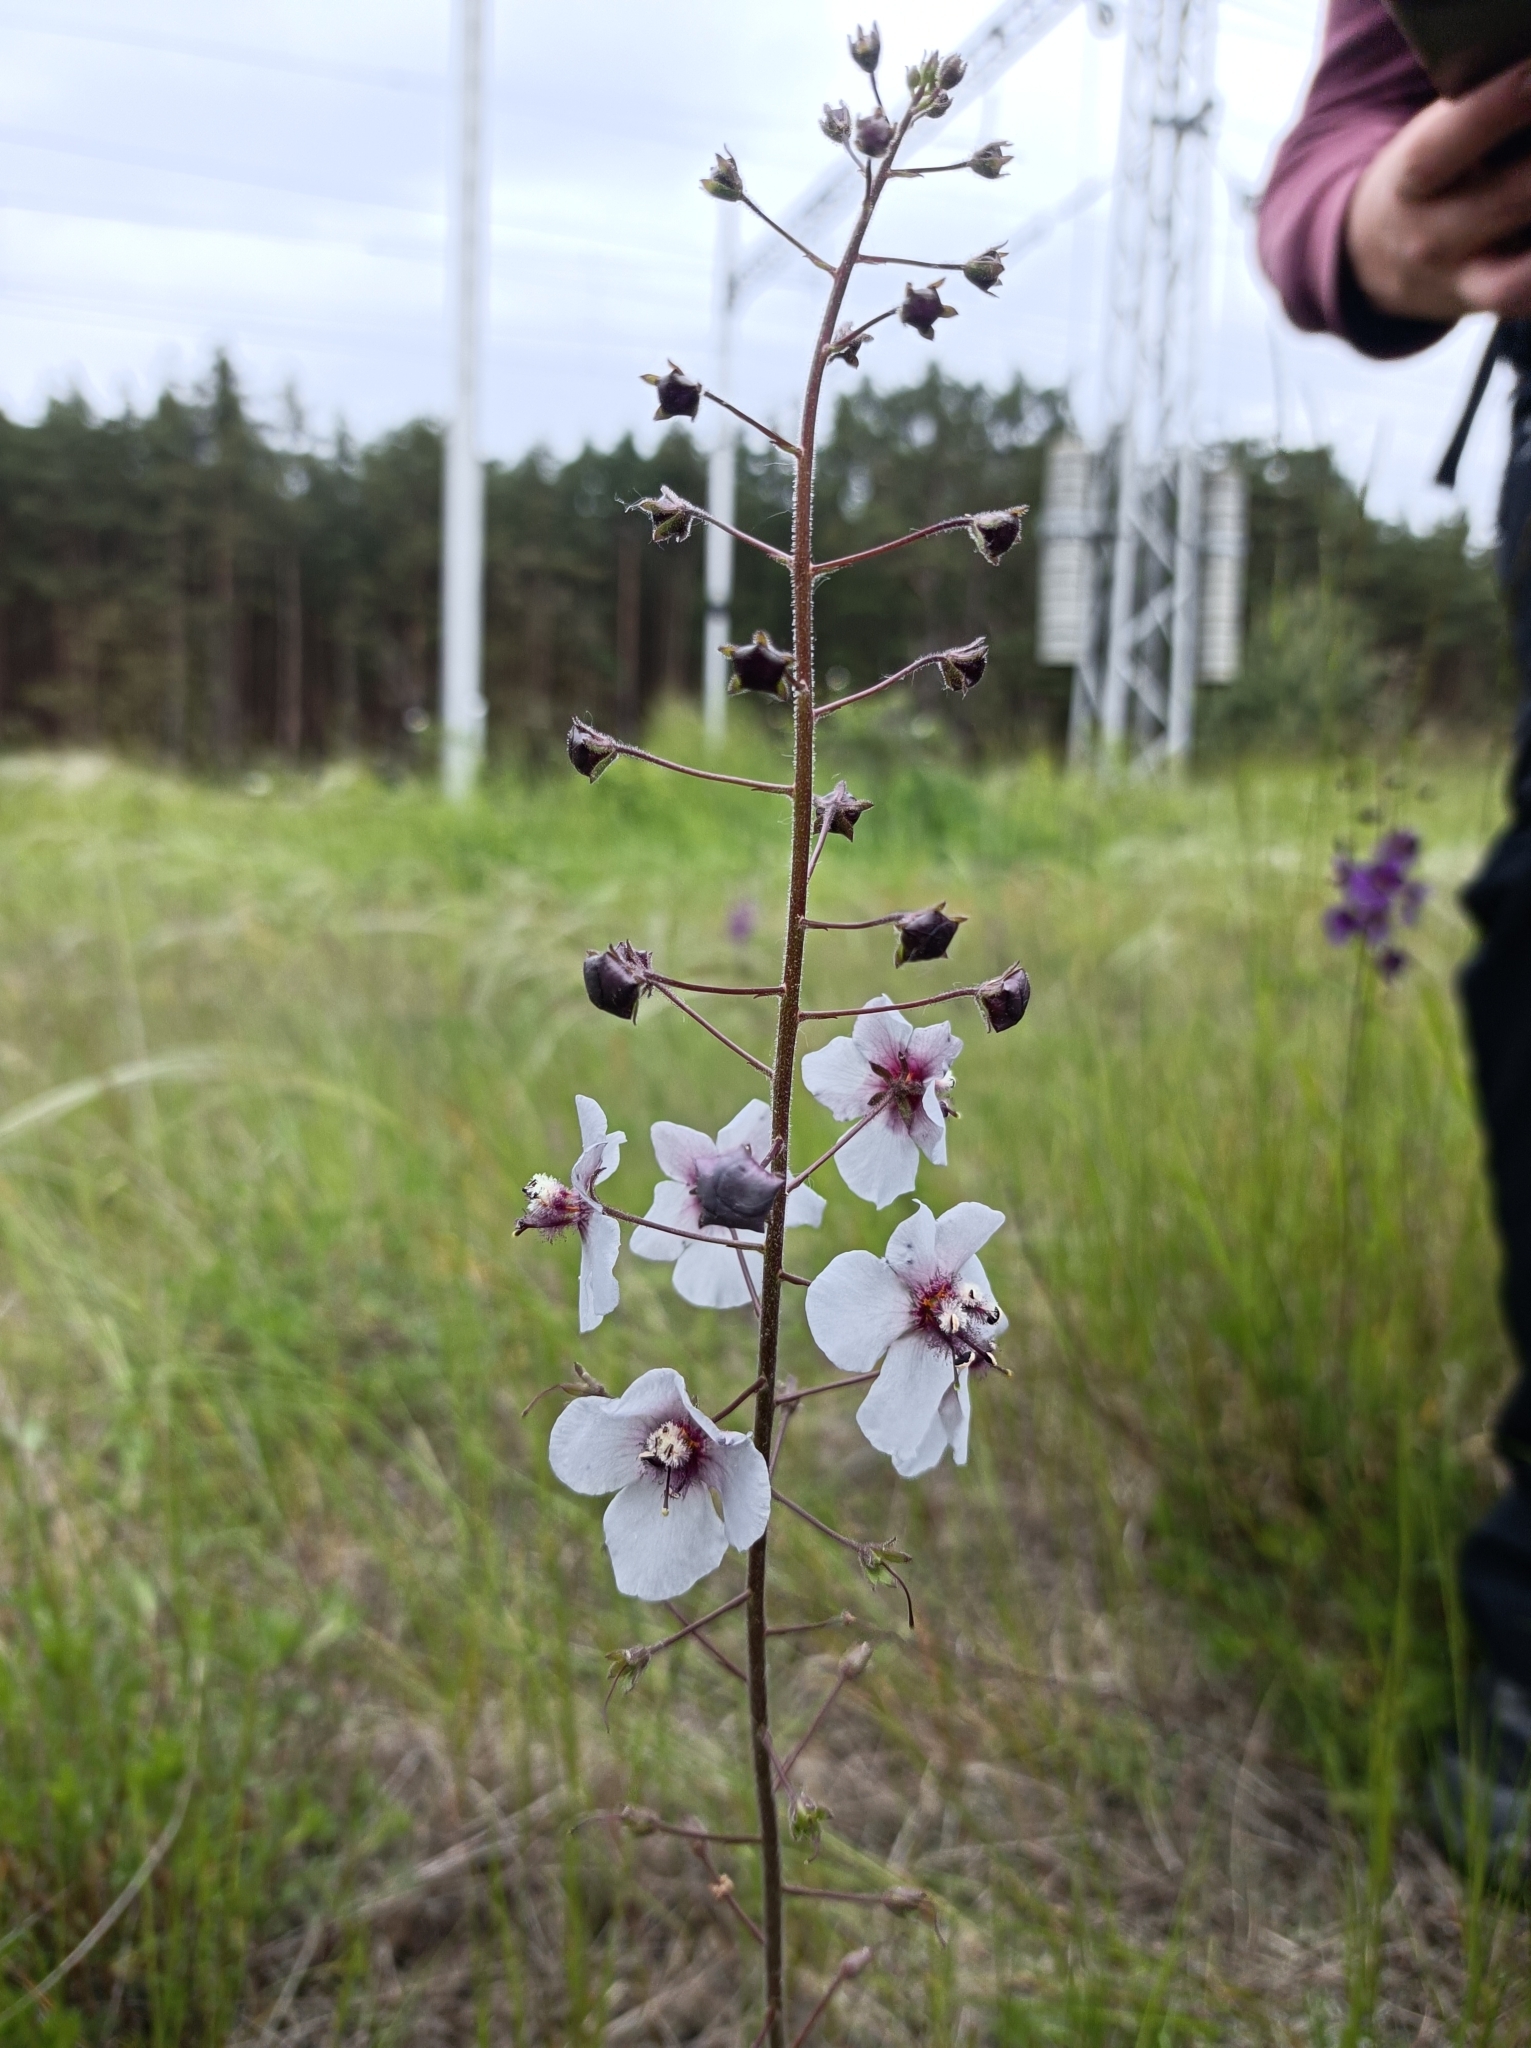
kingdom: Plantae
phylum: Tracheophyta
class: Magnoliopsida
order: Lamiales
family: Scrophulariaceae
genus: Verbascum
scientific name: Verbascum phoeniceum
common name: Purple mullein
